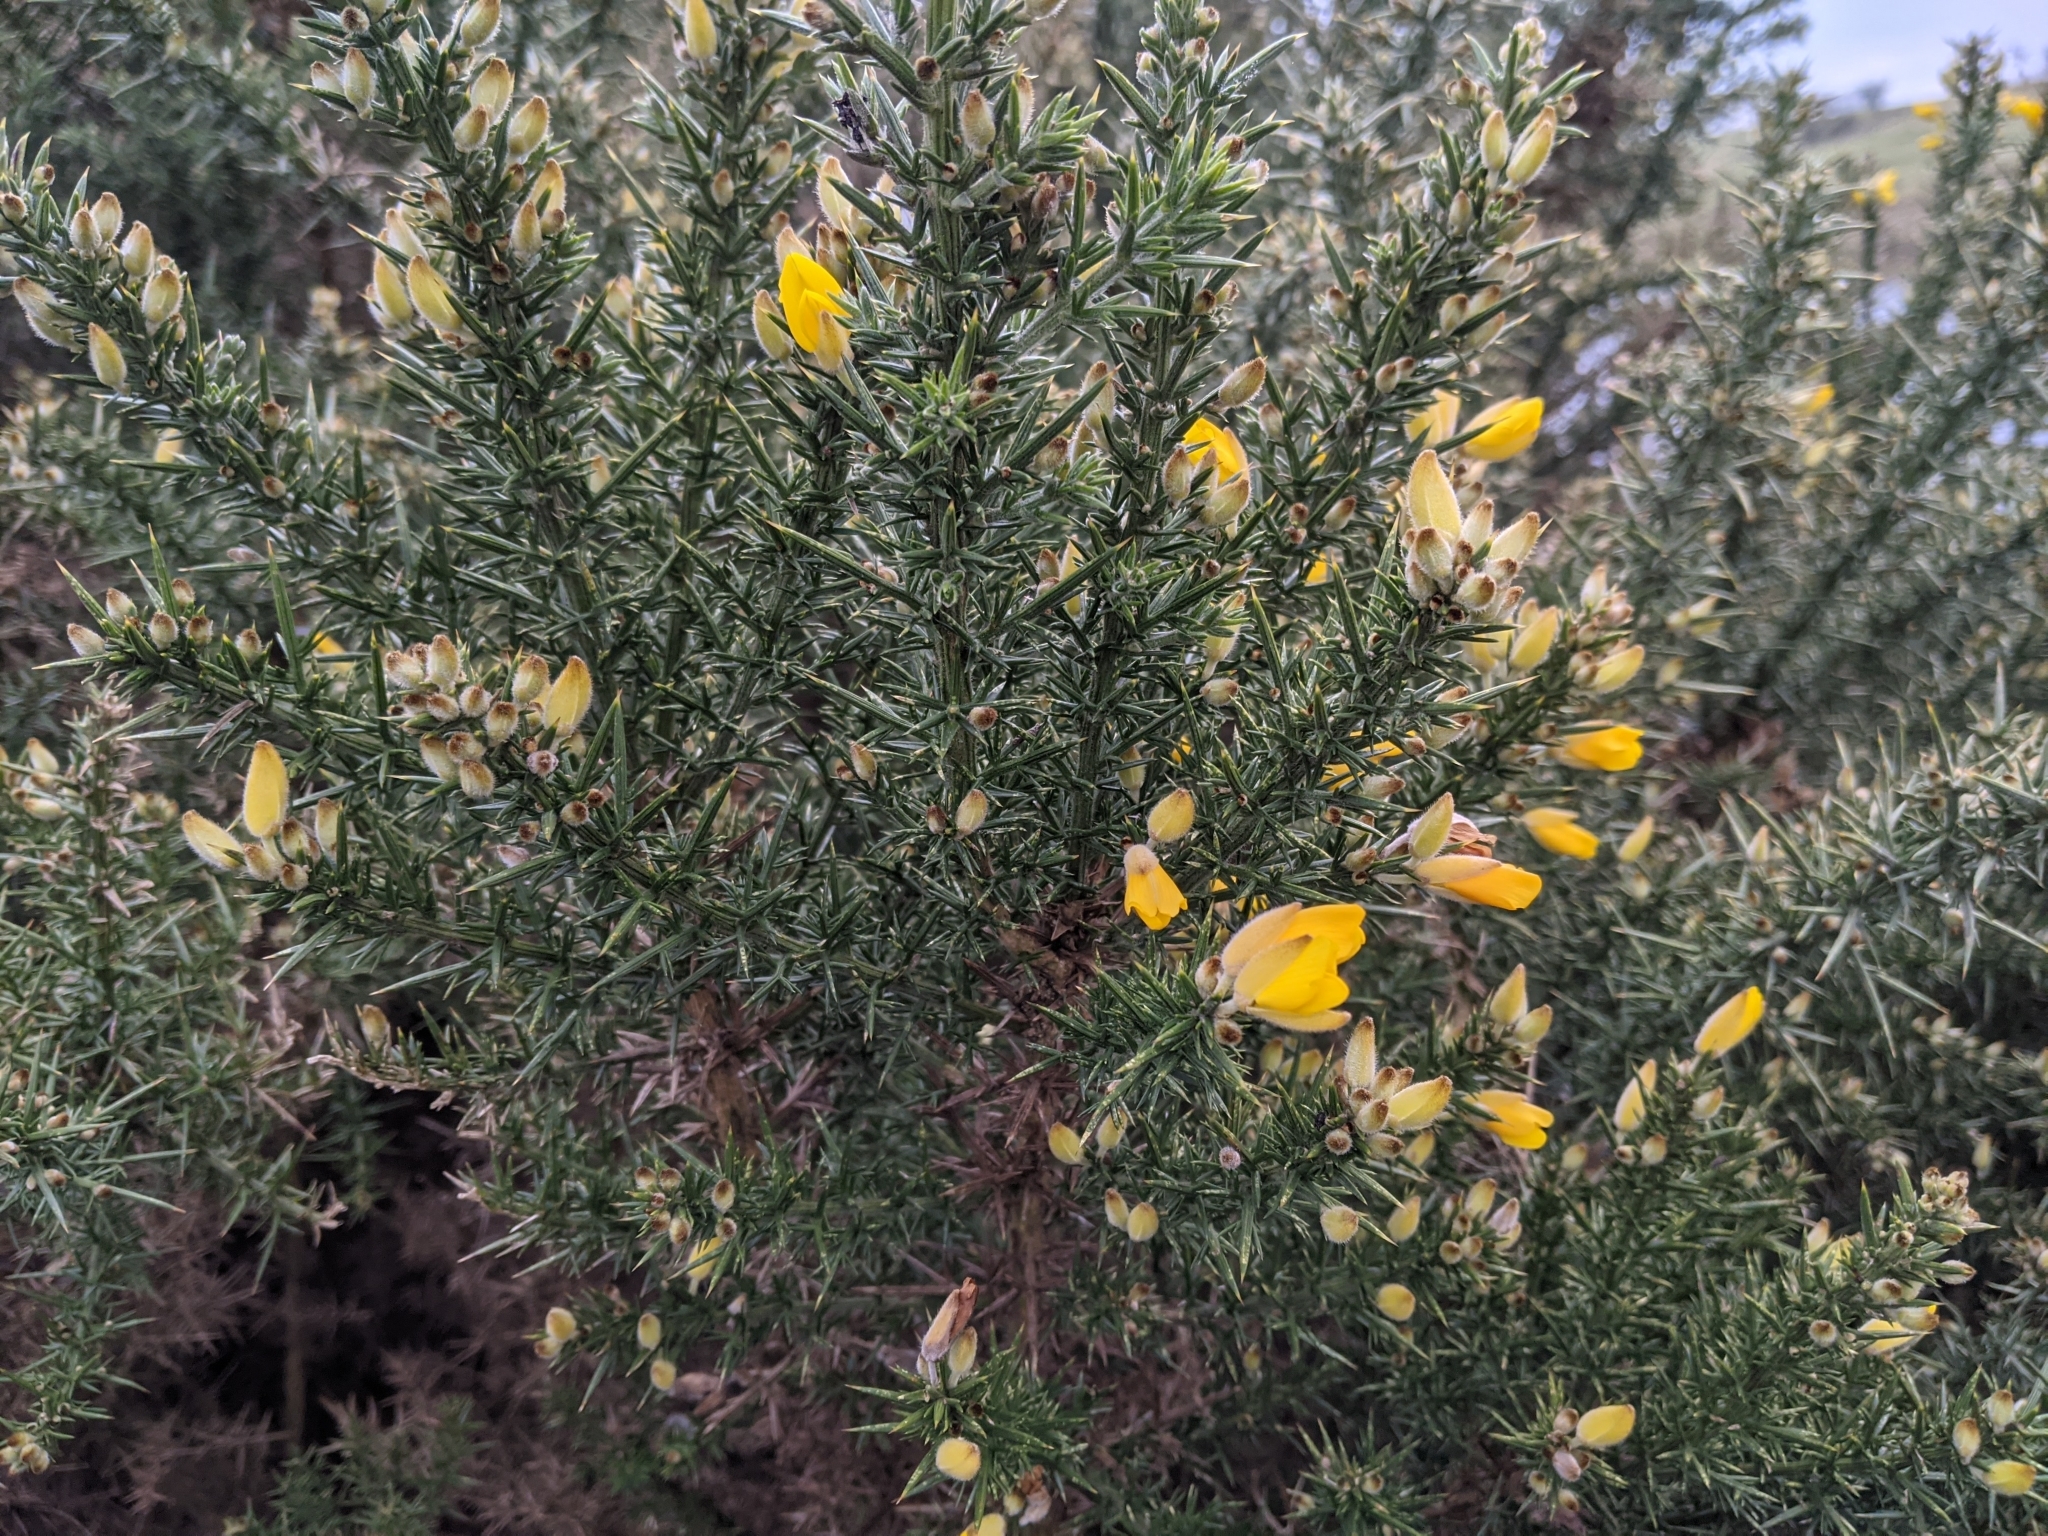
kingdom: Plantae
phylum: Tracheophyta
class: Magnoliopsida
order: Fabales
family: Fabaceae
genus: Ulex
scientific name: Ulex europaeus
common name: Common gorse
